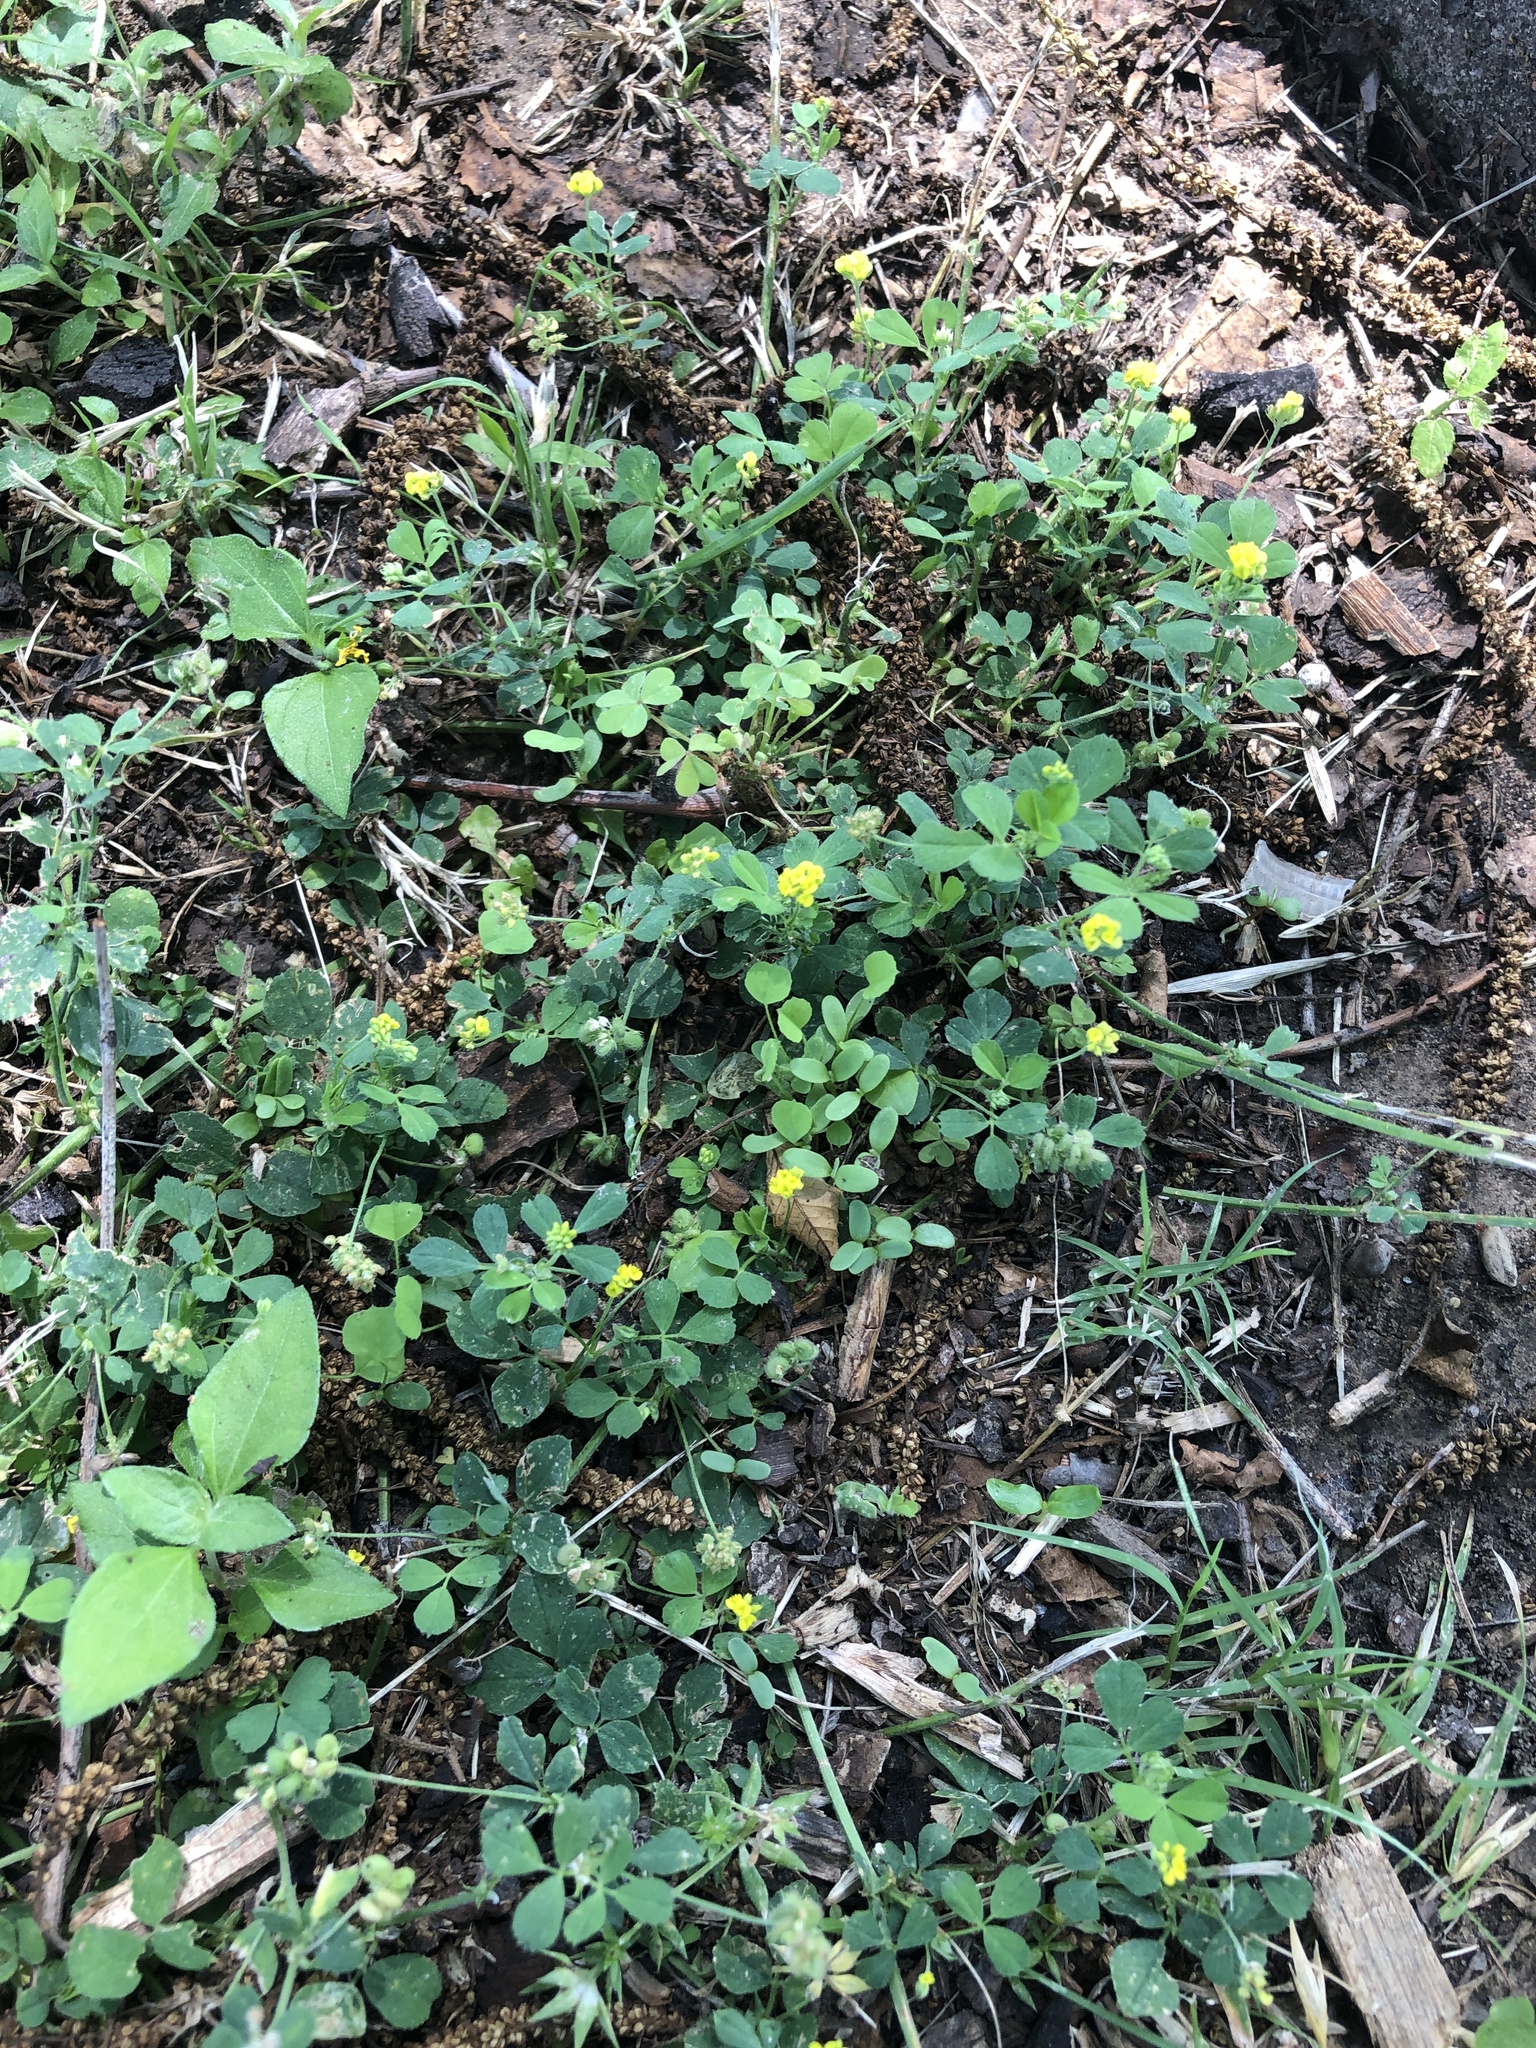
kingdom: Plantae
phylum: Tracheophyta
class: Magnoliopsida
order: Fabales
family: Fabaceae
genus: Medicago
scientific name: Medicago lupulina
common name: Black medick
